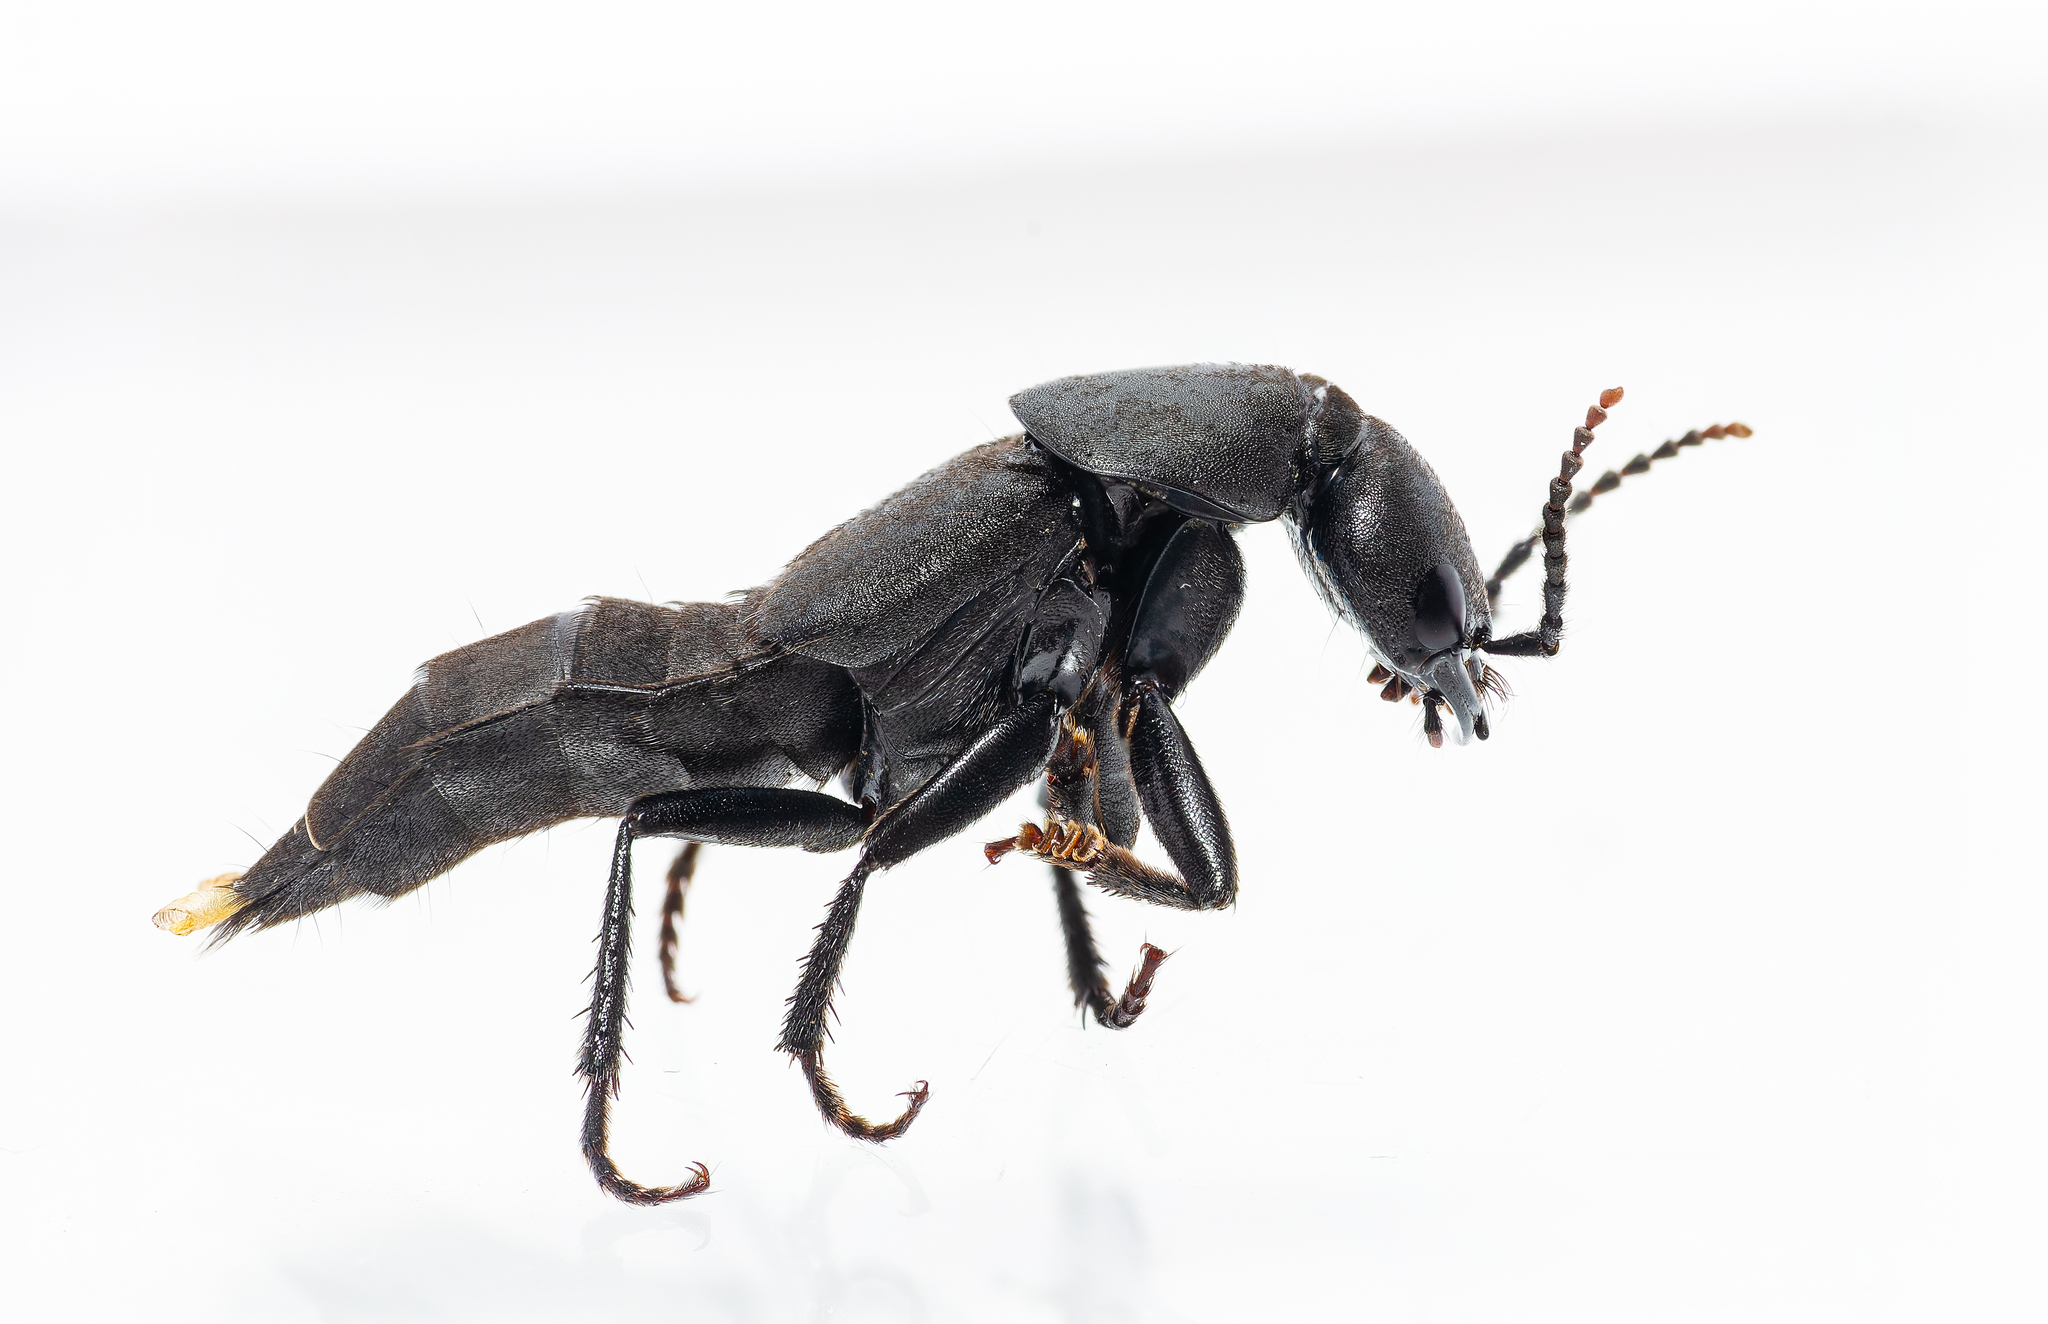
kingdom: Animalia
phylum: Arthropoda
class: Insecta
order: Coleoptera
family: Staphylinidae
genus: Ocypus
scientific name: Ocypus olens
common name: Devil's coach-horse
